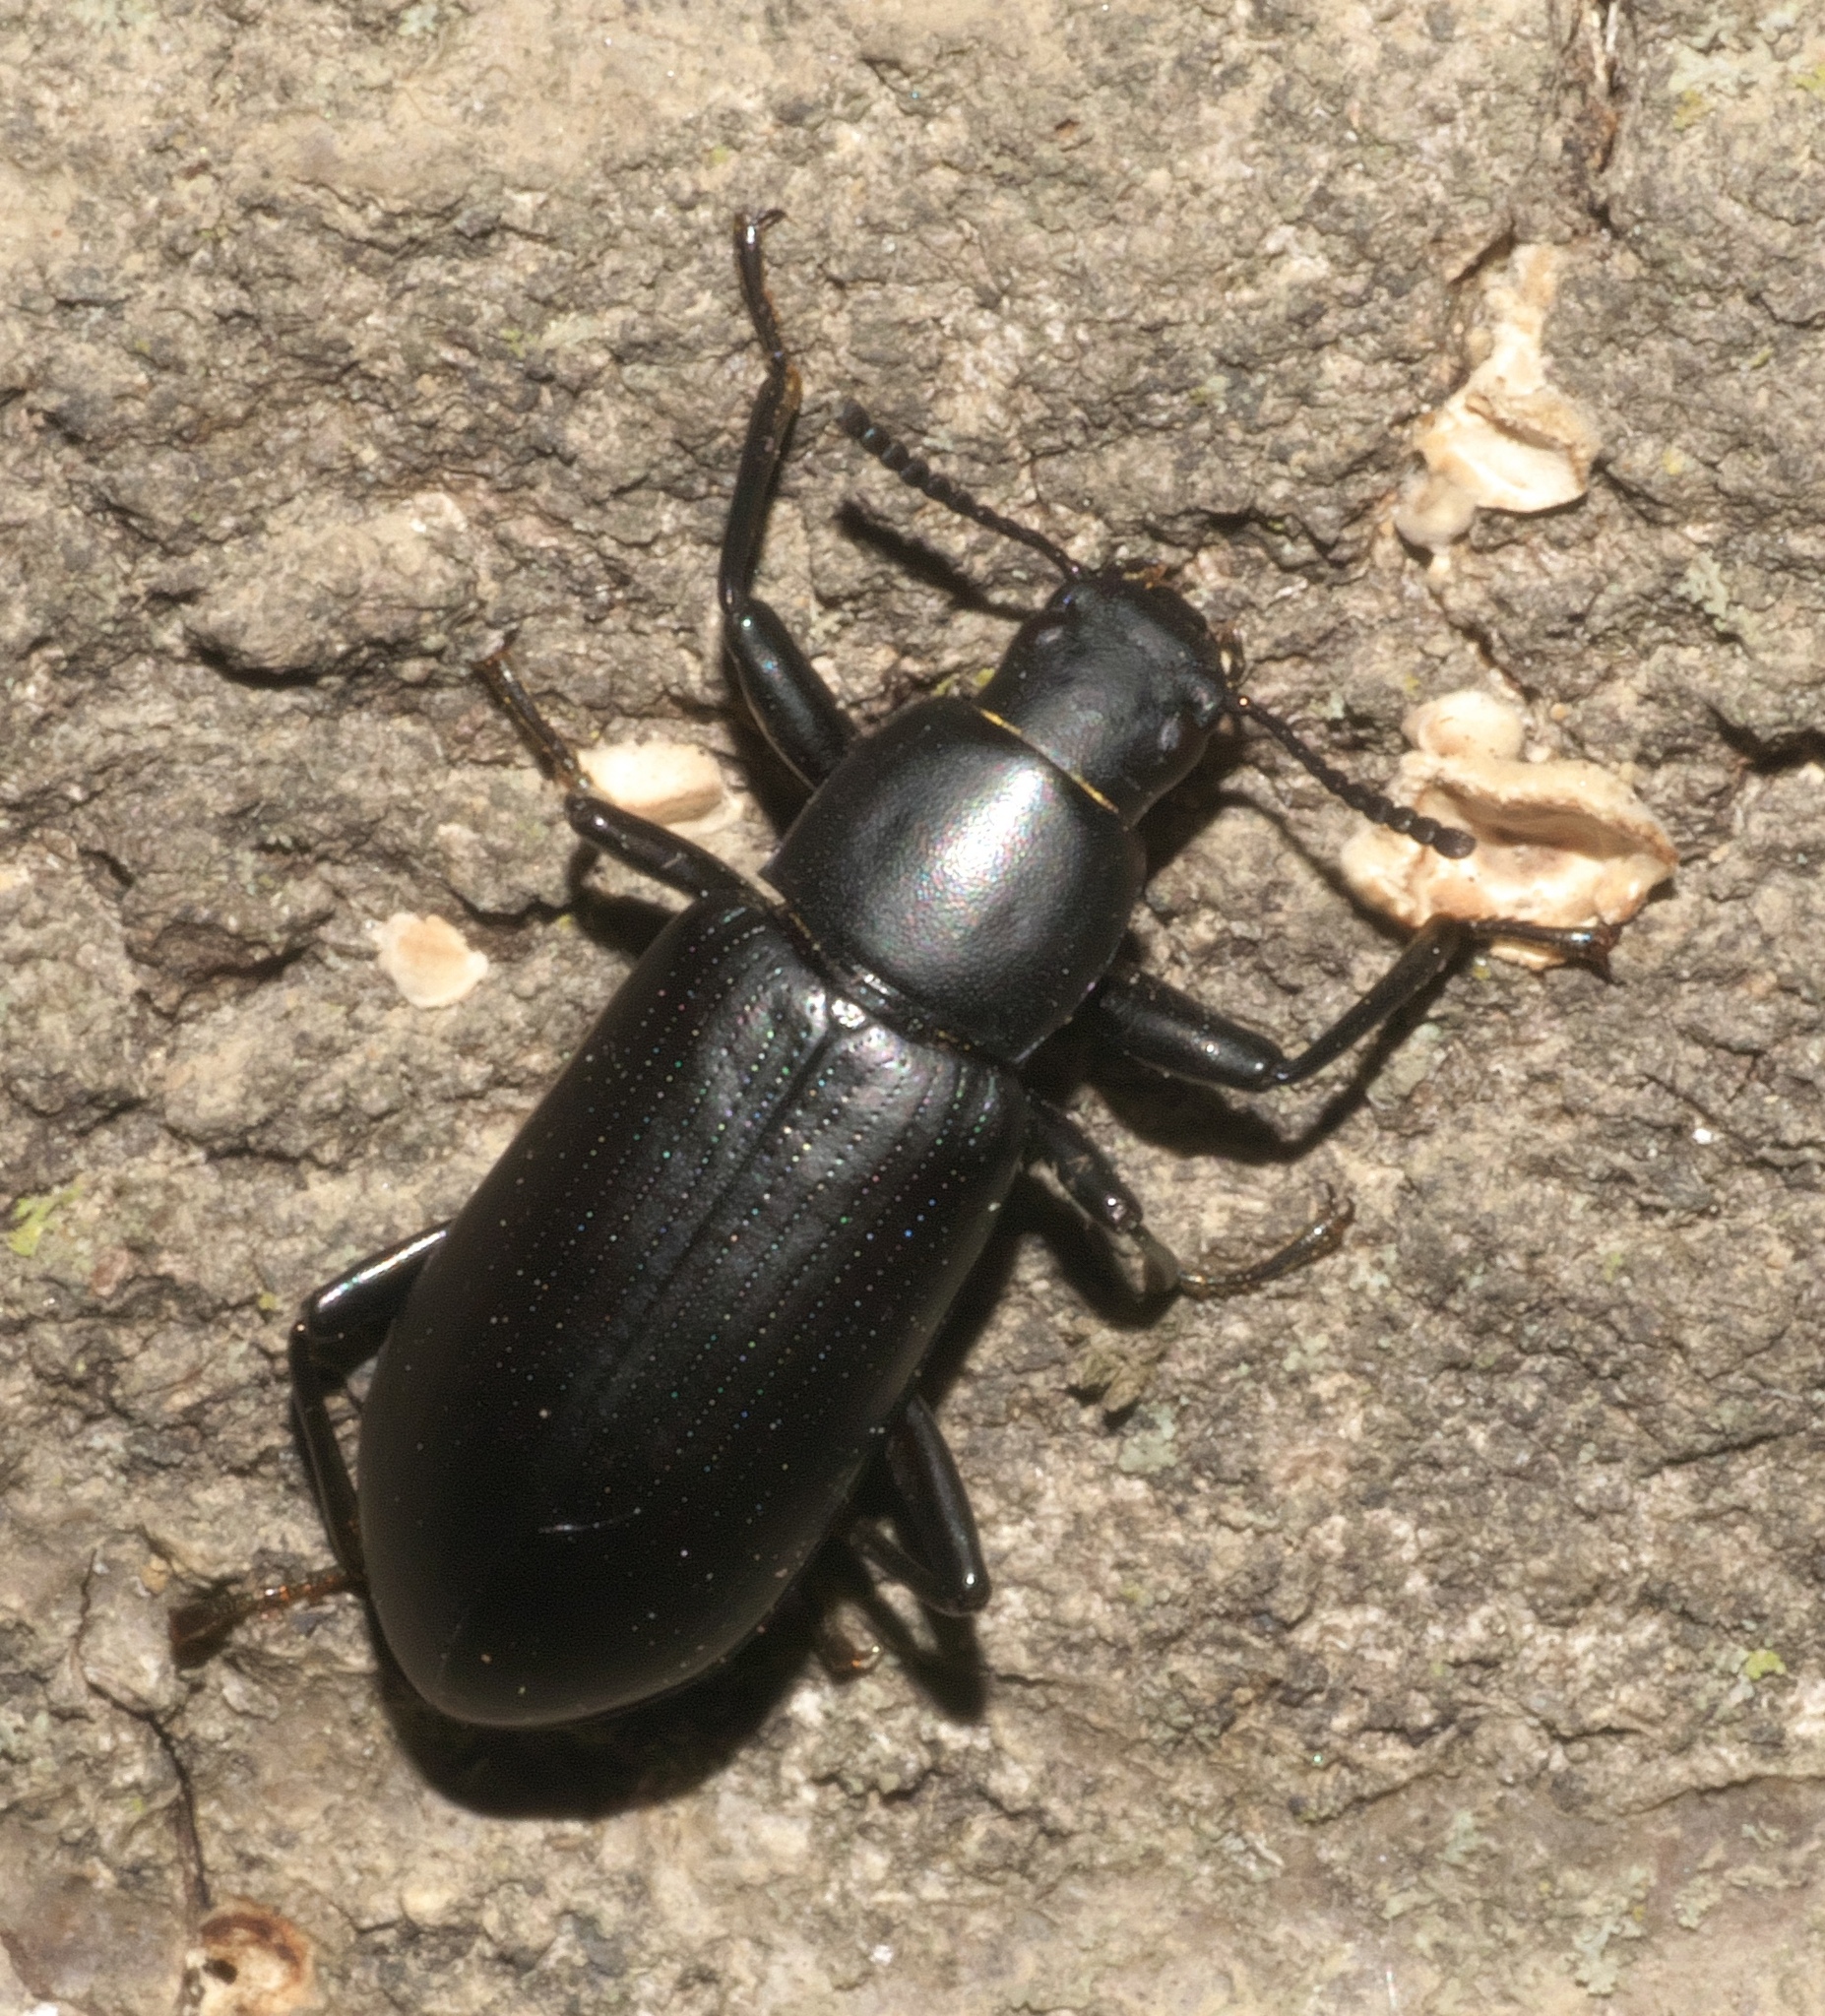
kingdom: Animalia
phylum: Arthropoda
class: Insecta
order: Coleoptera
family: Tenebrionidae
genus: Alobates
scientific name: Alobates pensylvanicus
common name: False mealworm beetle
